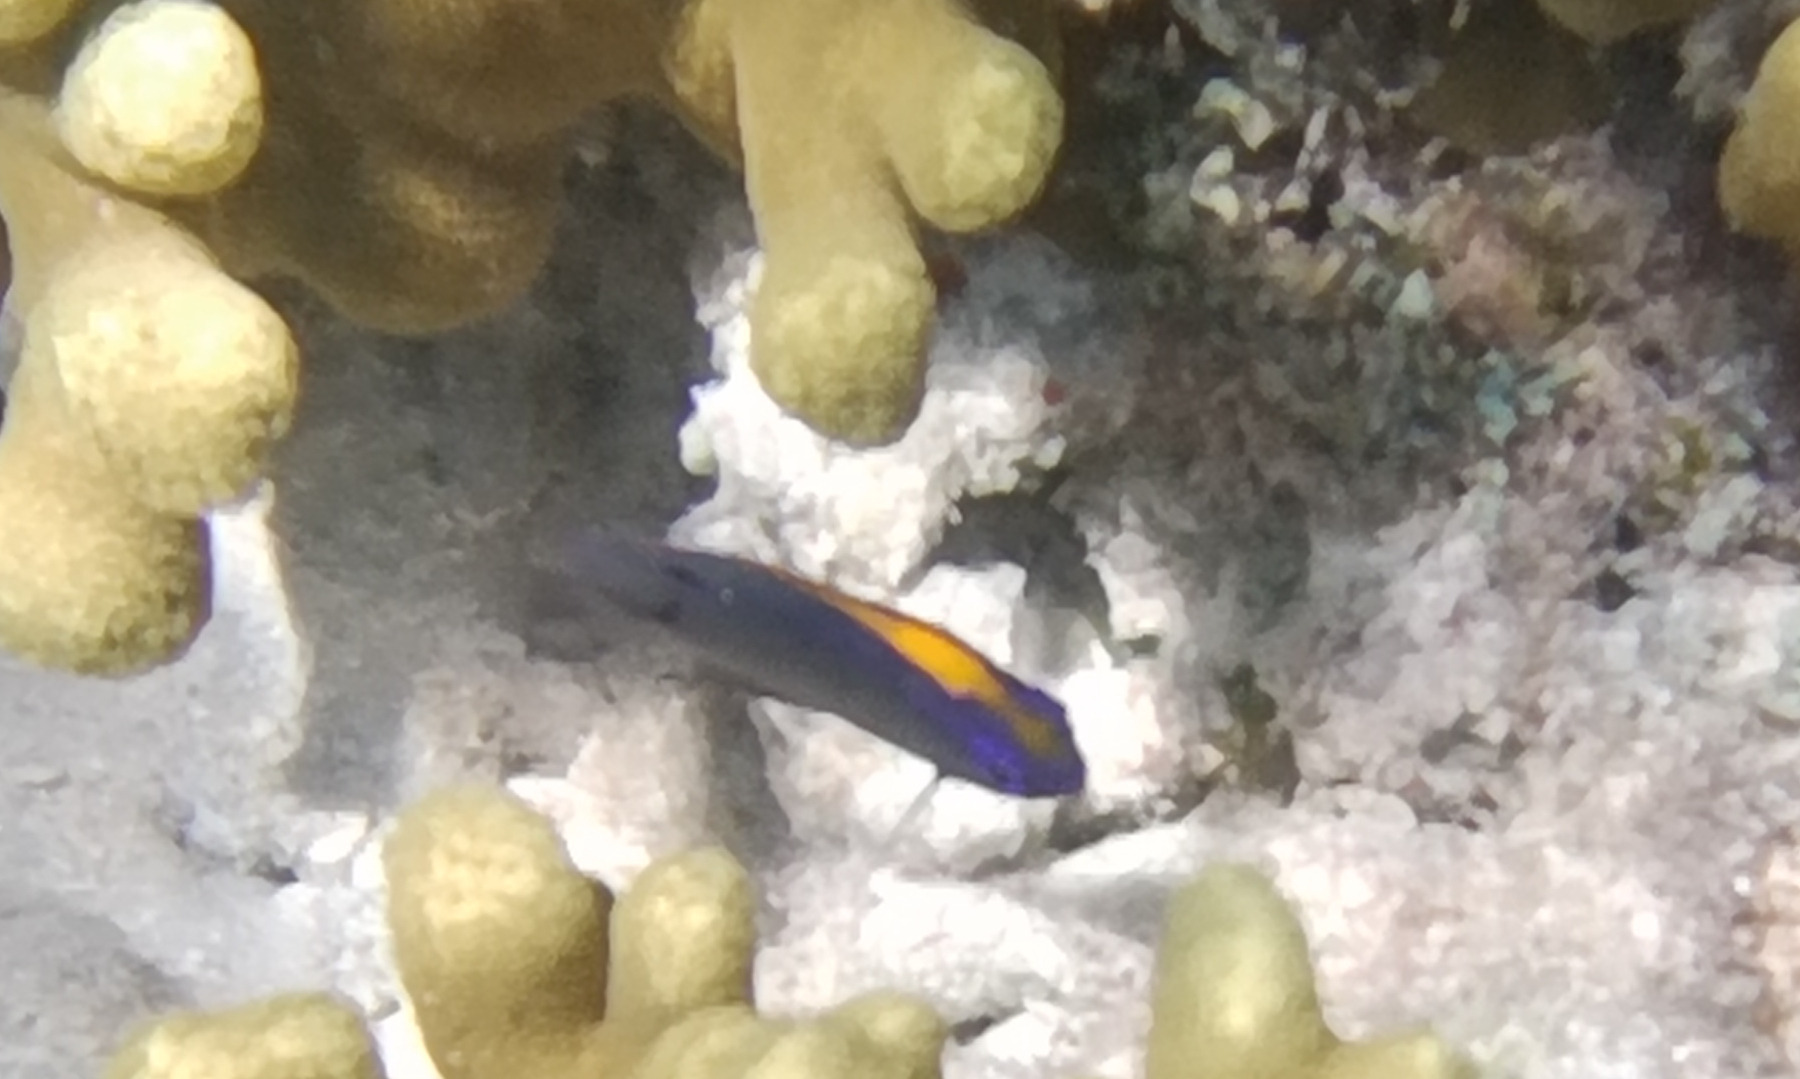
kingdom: Animalia
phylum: Chordata
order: Perciformes
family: Pomacentridae
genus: Pomacentrus
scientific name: Pomacentrus indicus
